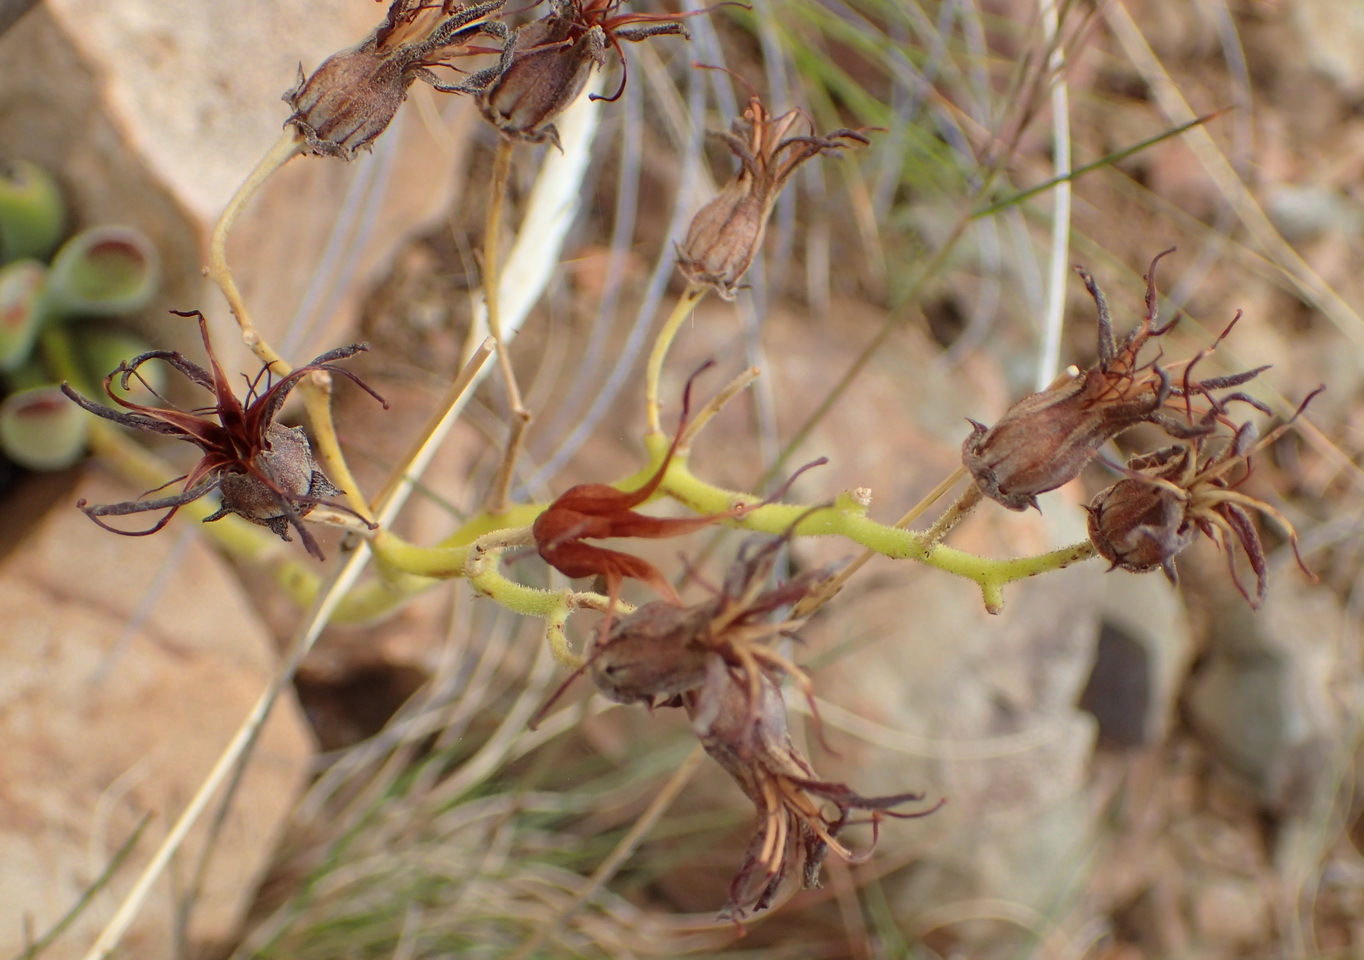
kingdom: Plantae
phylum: Tracheophyta
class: Magnoliopsida
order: Saxifragales
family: Crassulaceae
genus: Cotyledon
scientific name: Cotyledon campanulata
